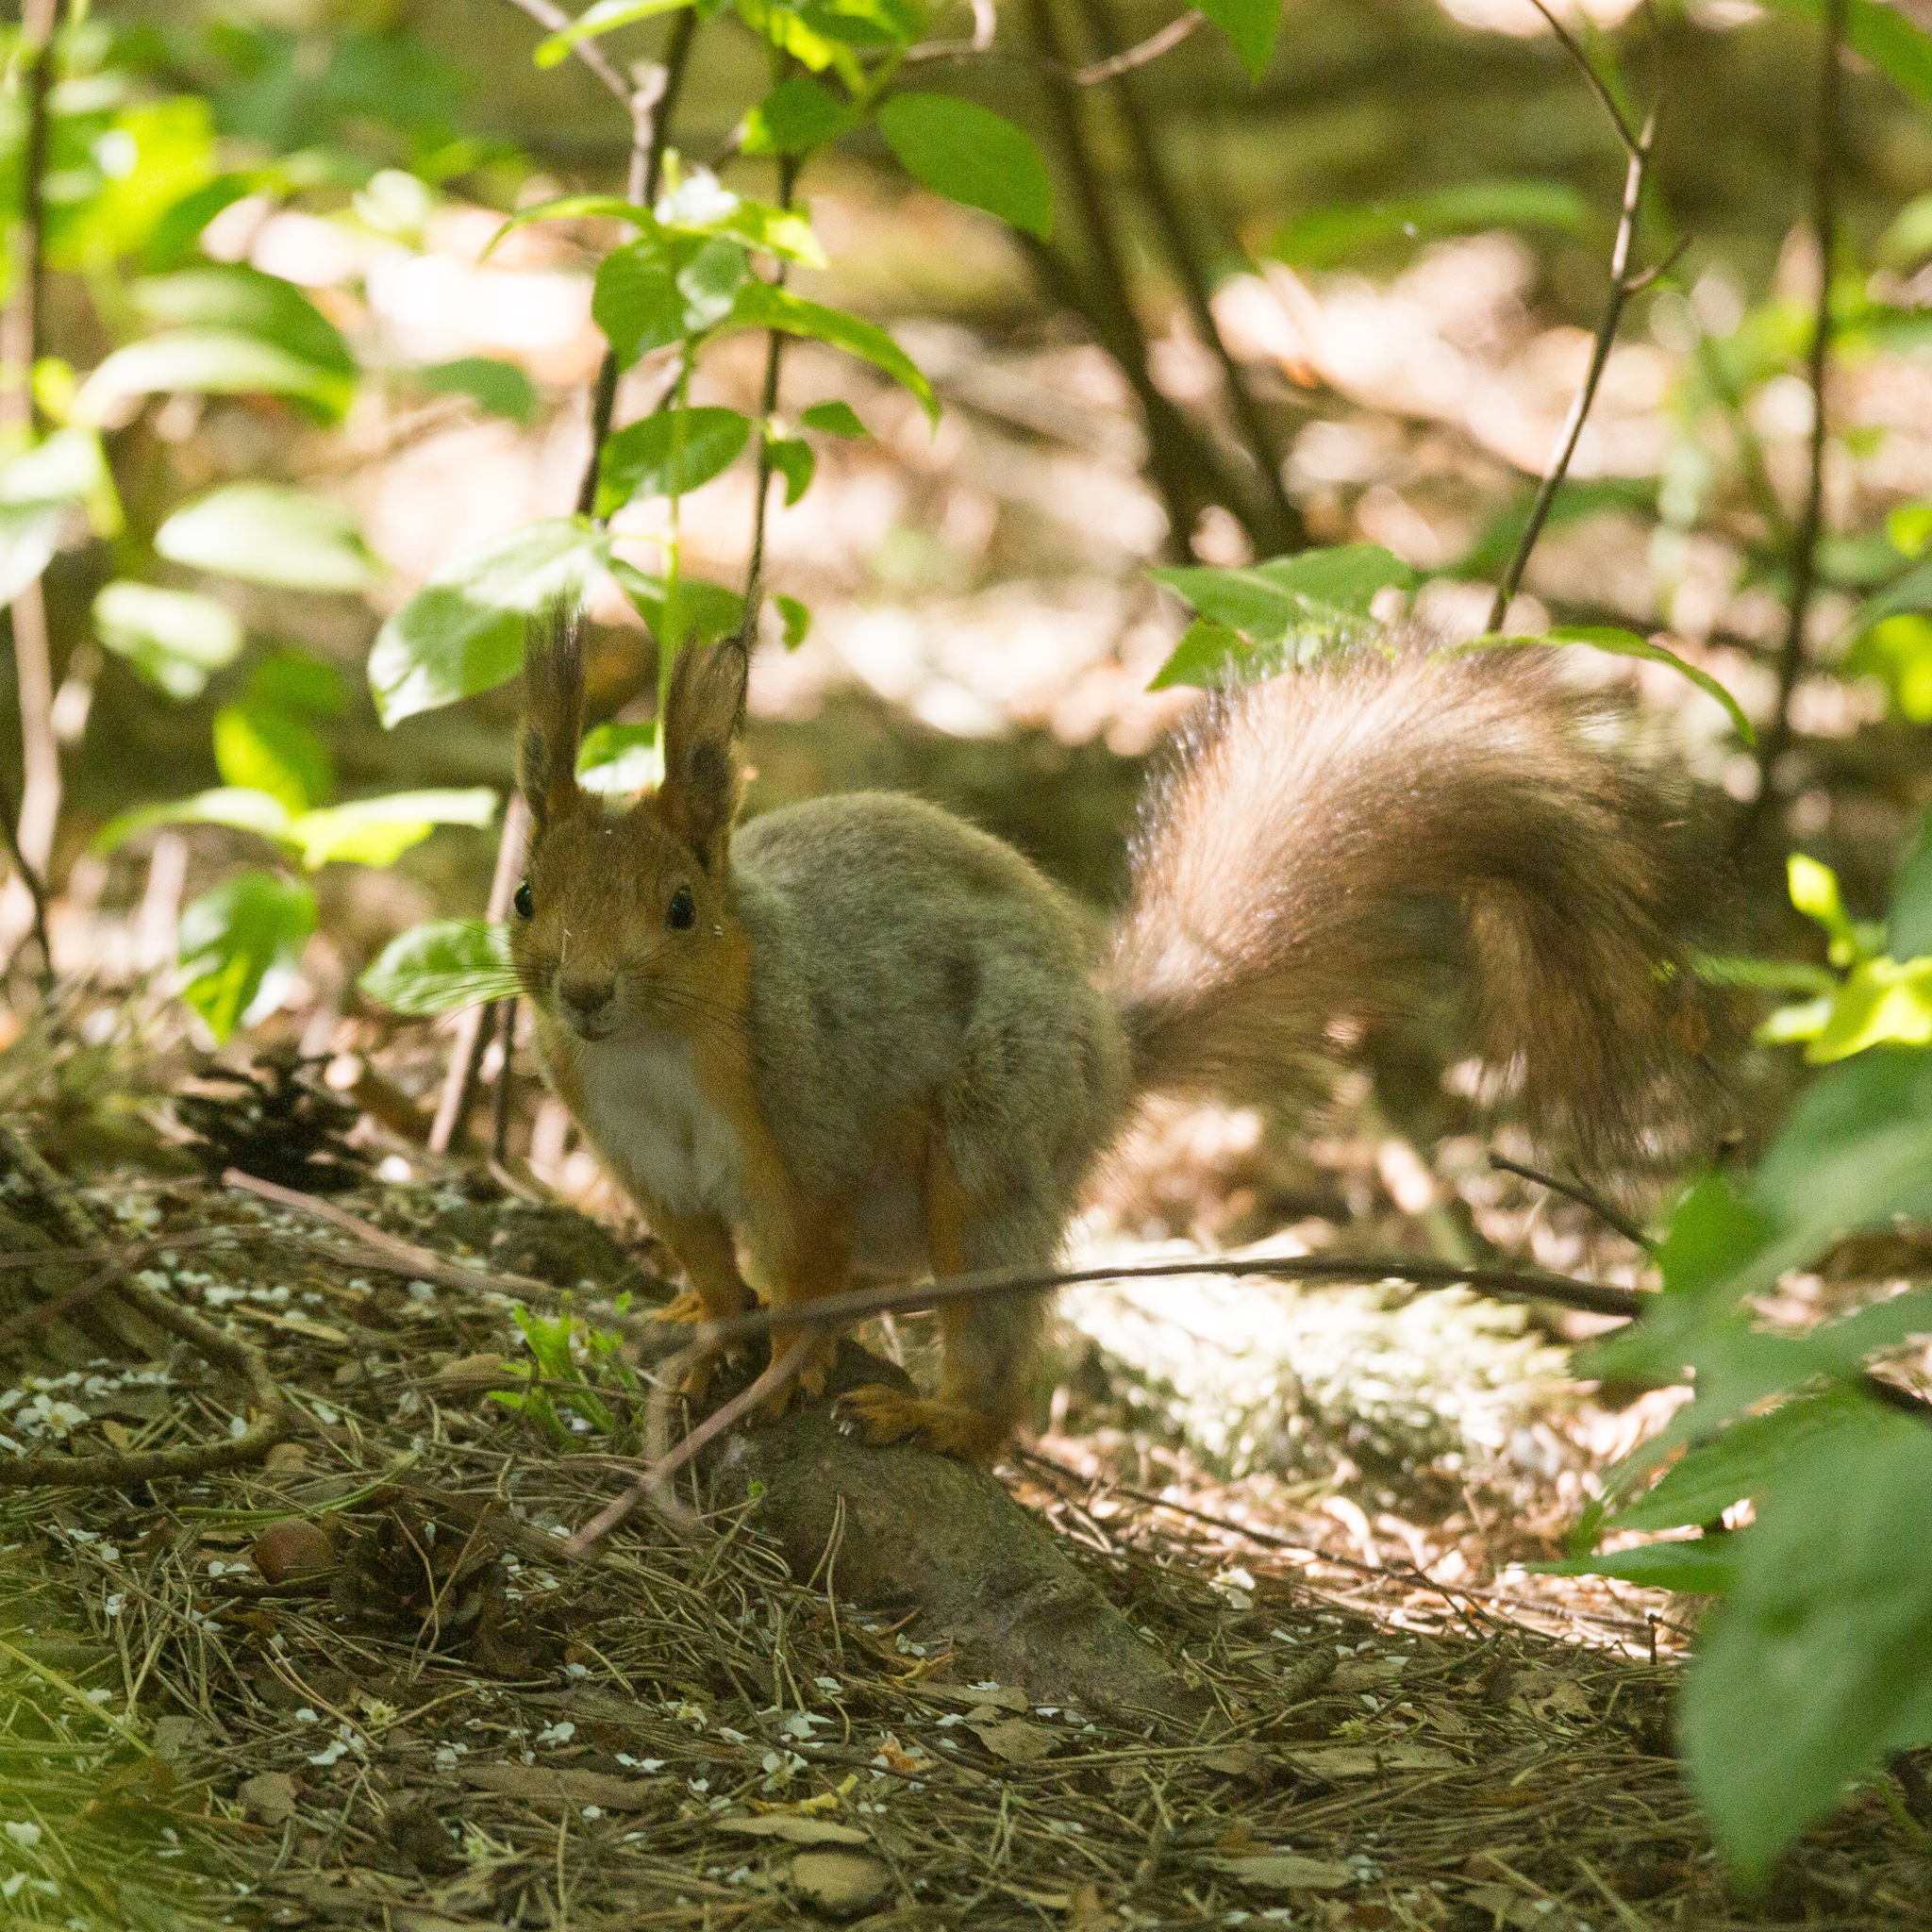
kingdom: Animalia
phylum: Chordata
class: Mammalia
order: Rodentia
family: Sciuridae
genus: Sciurus
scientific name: Sciurus vulgaris
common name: Eurasian red squirrel
